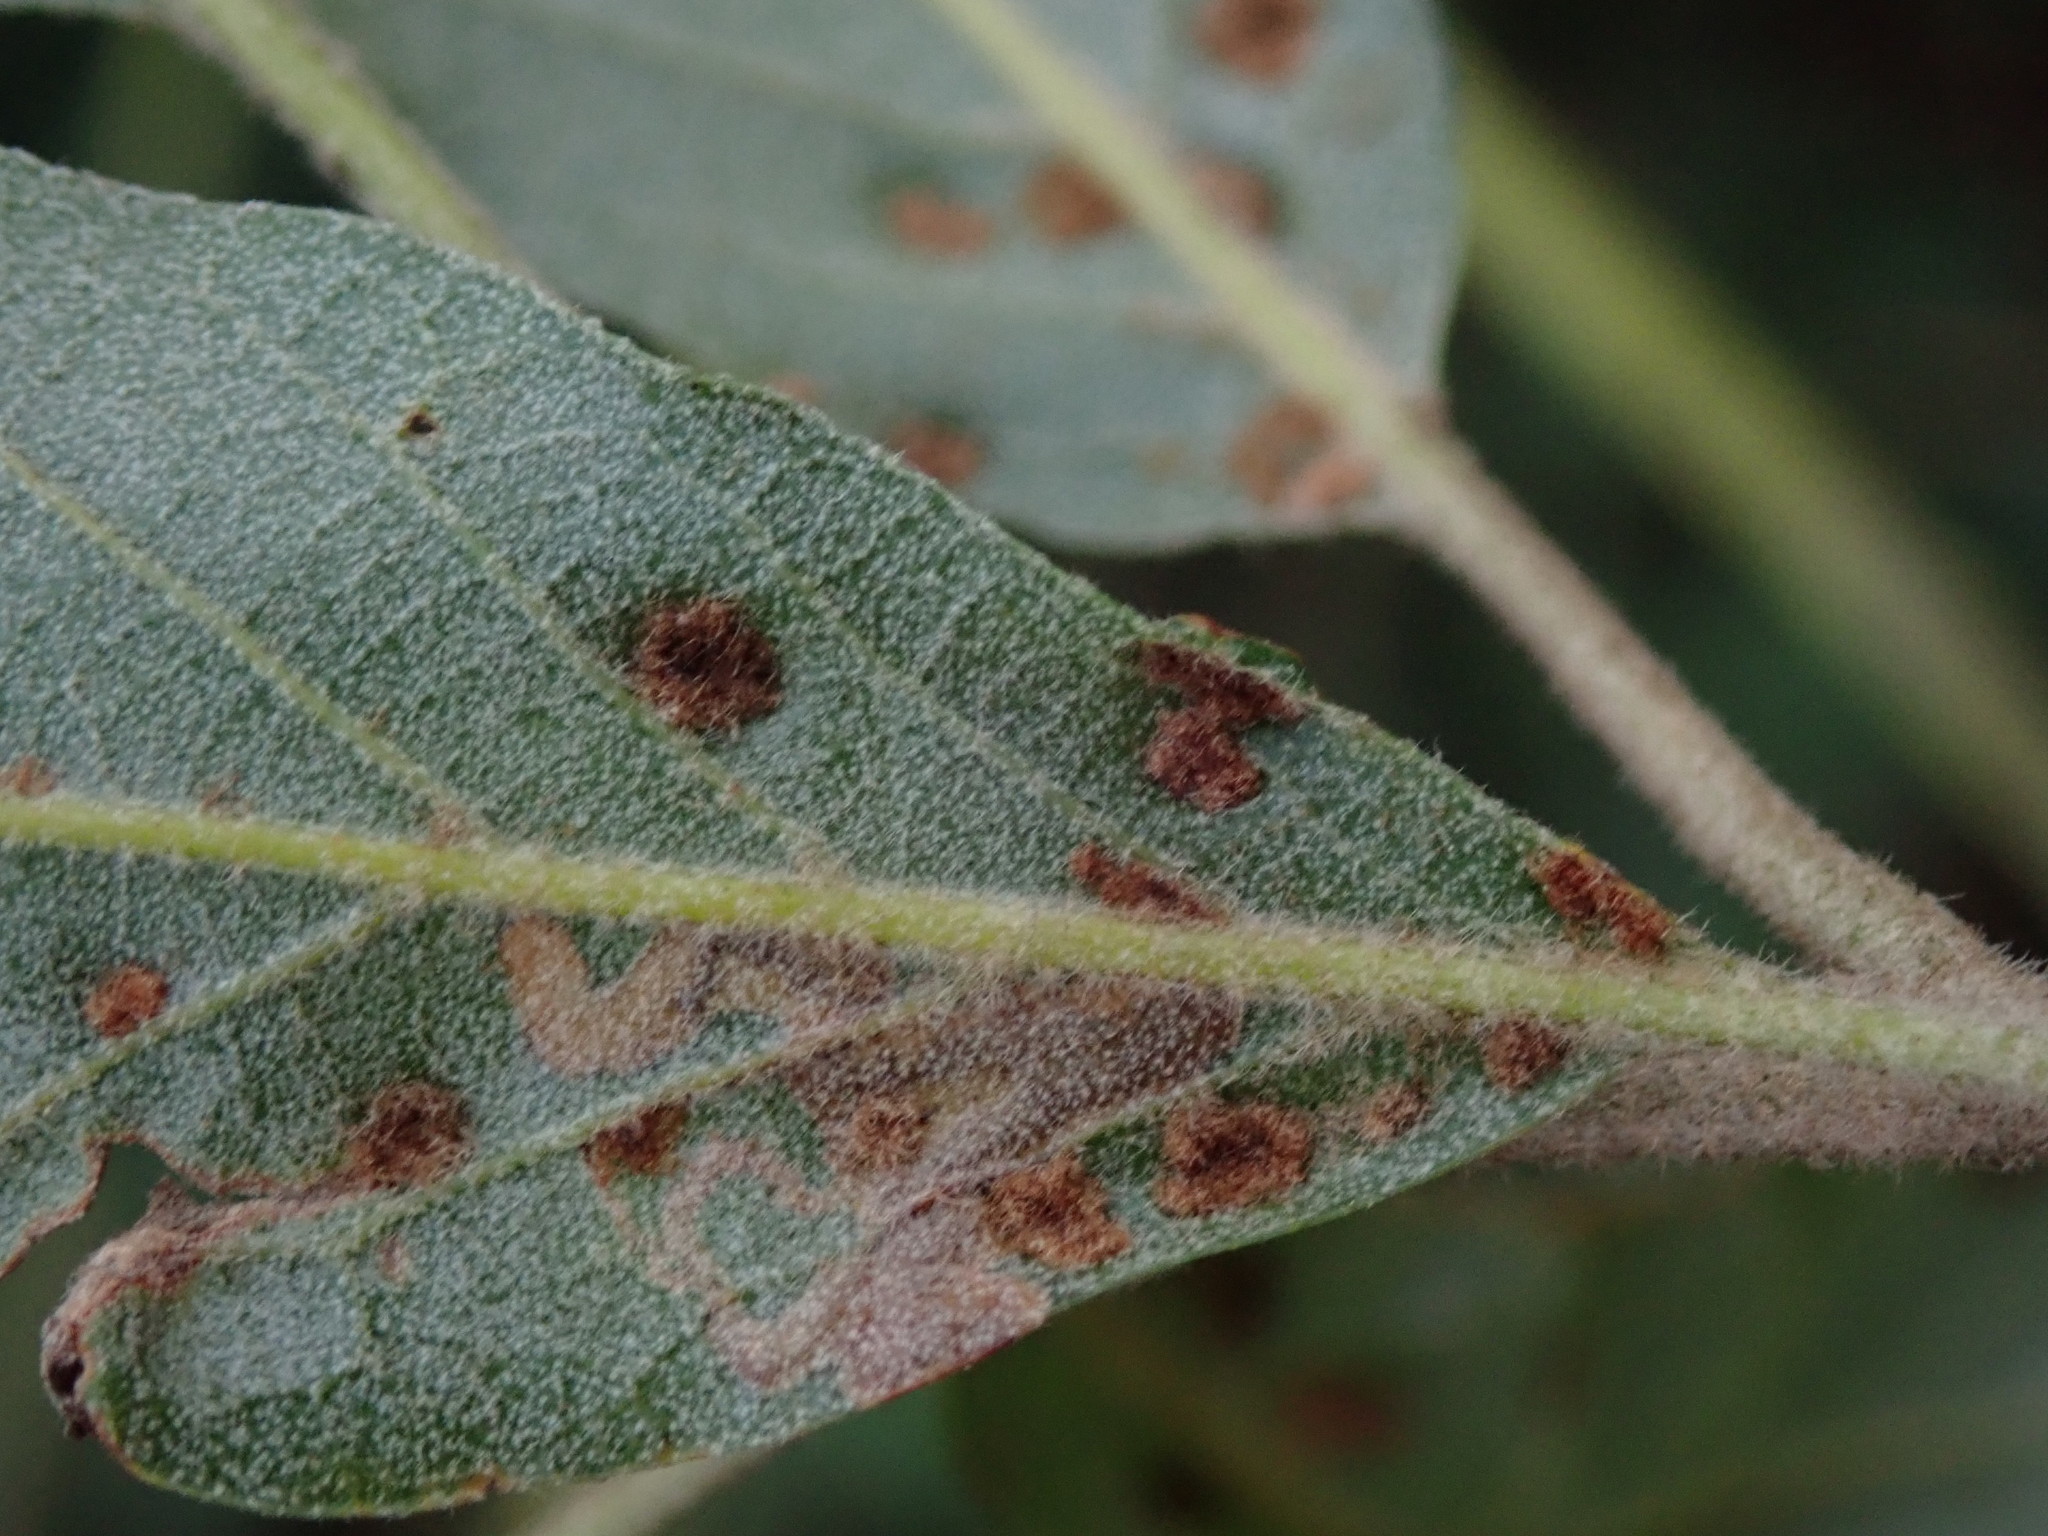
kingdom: Animalia
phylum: Arthropoda
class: Arachnida
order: Trombidiformes
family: Eriophyidae
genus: Aceria
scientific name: Aceria ilicis
